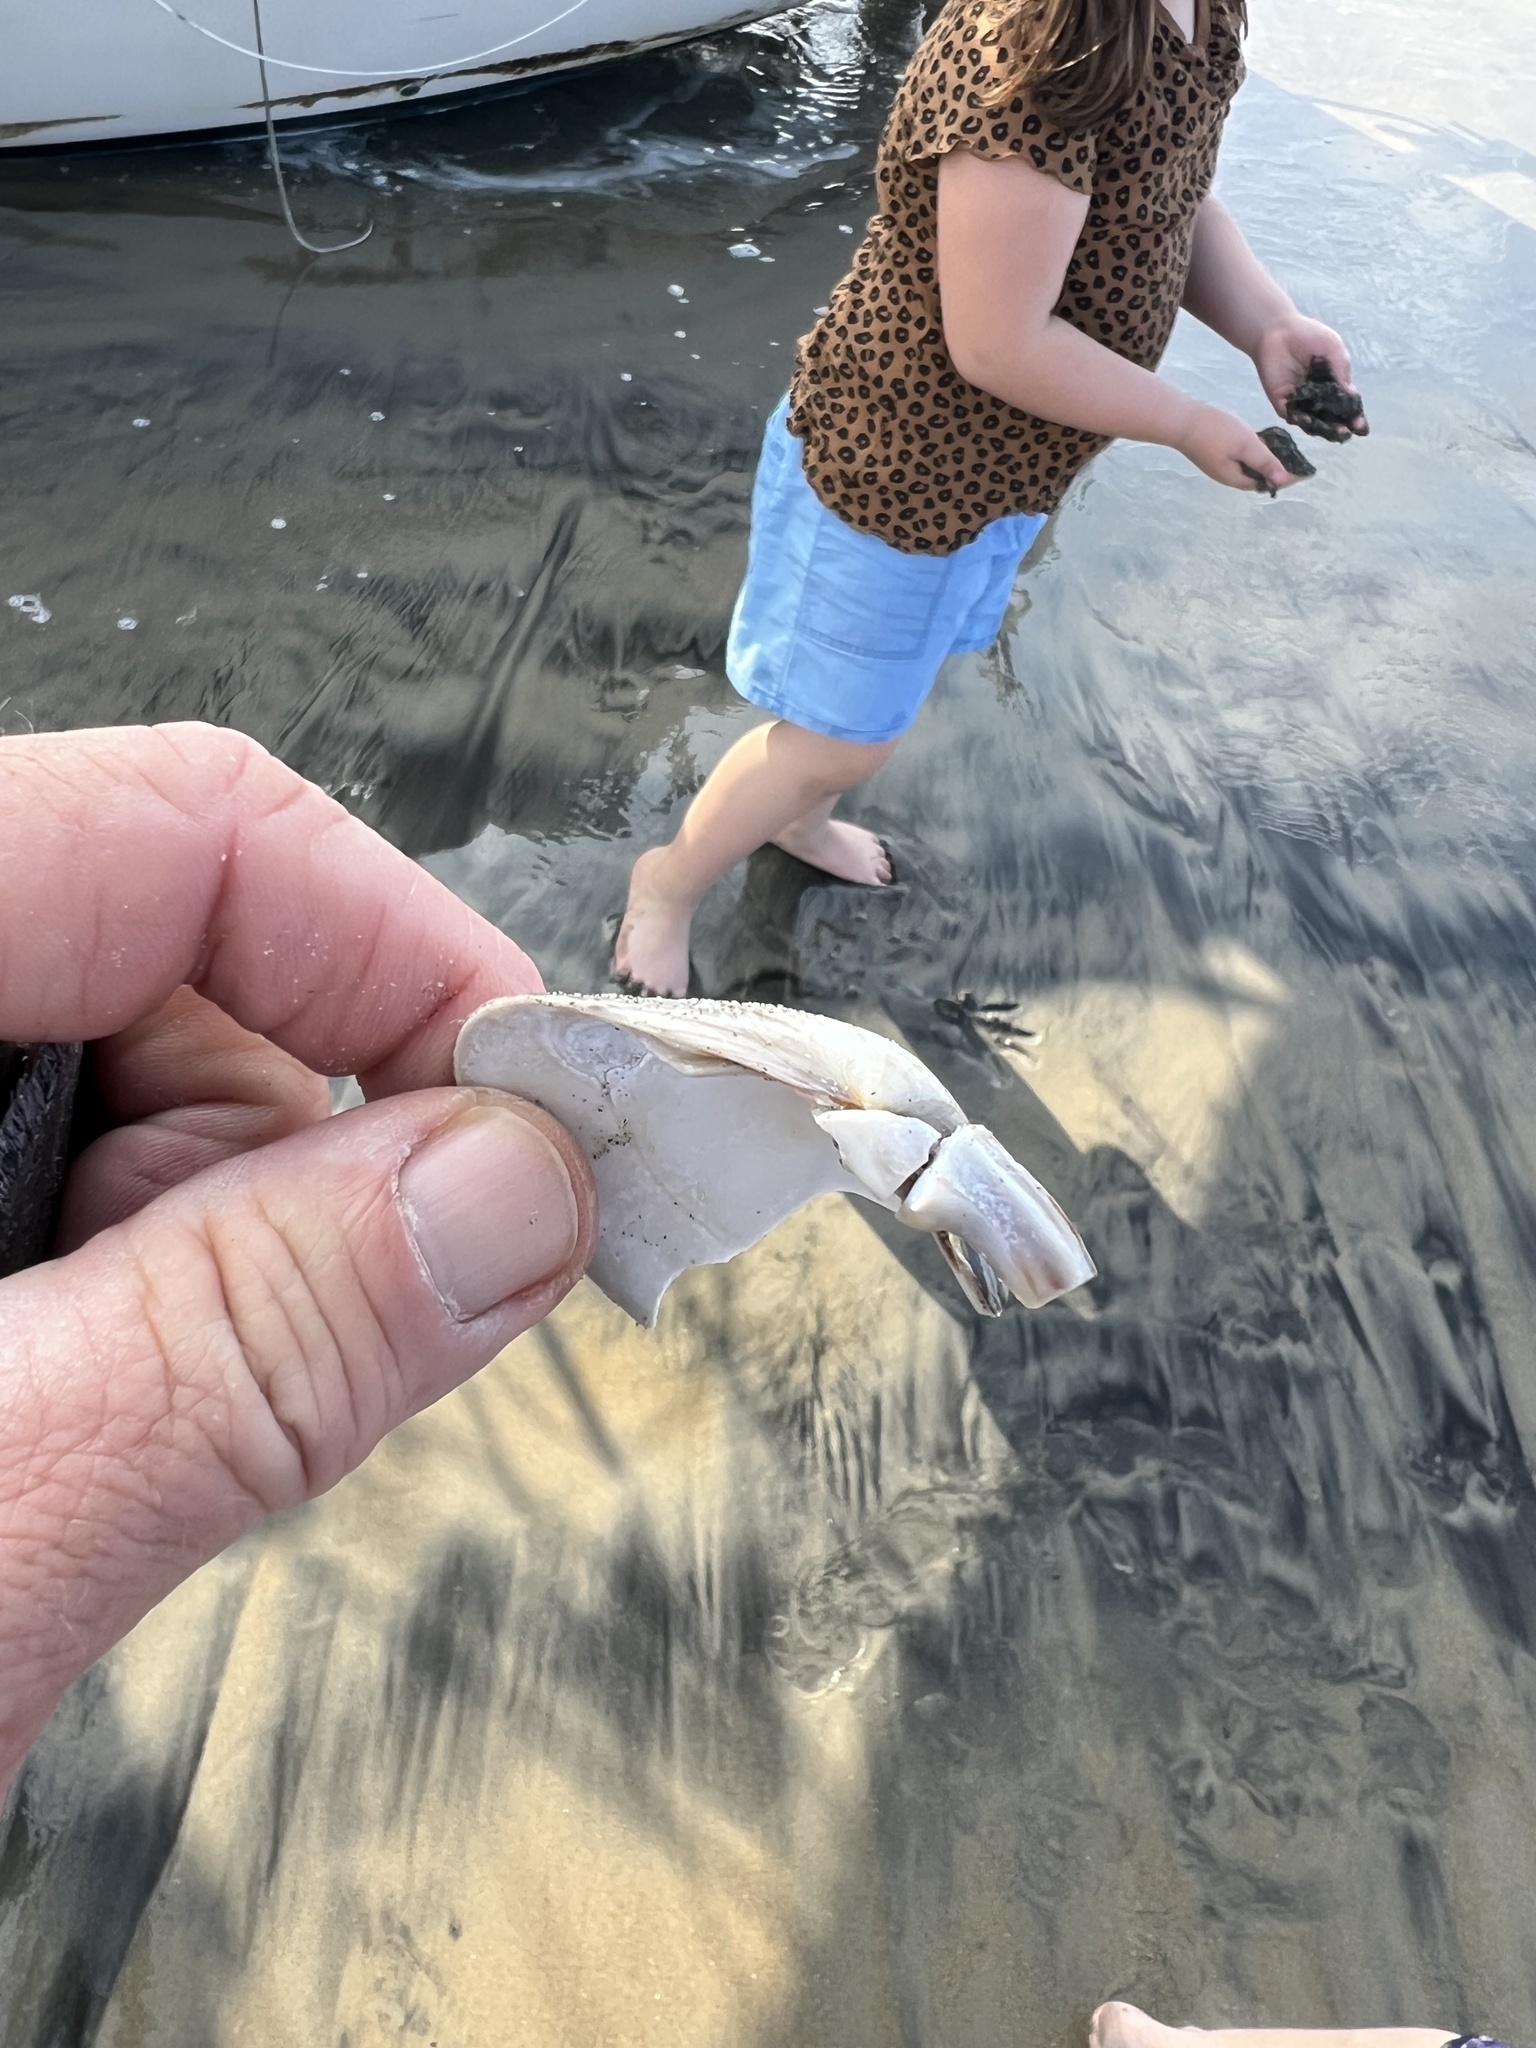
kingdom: Animalia
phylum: Mollusca
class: Bivalvia
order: Venerida
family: Veneridae
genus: Tivela
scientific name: Tivela stultorum
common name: Pismo clam
